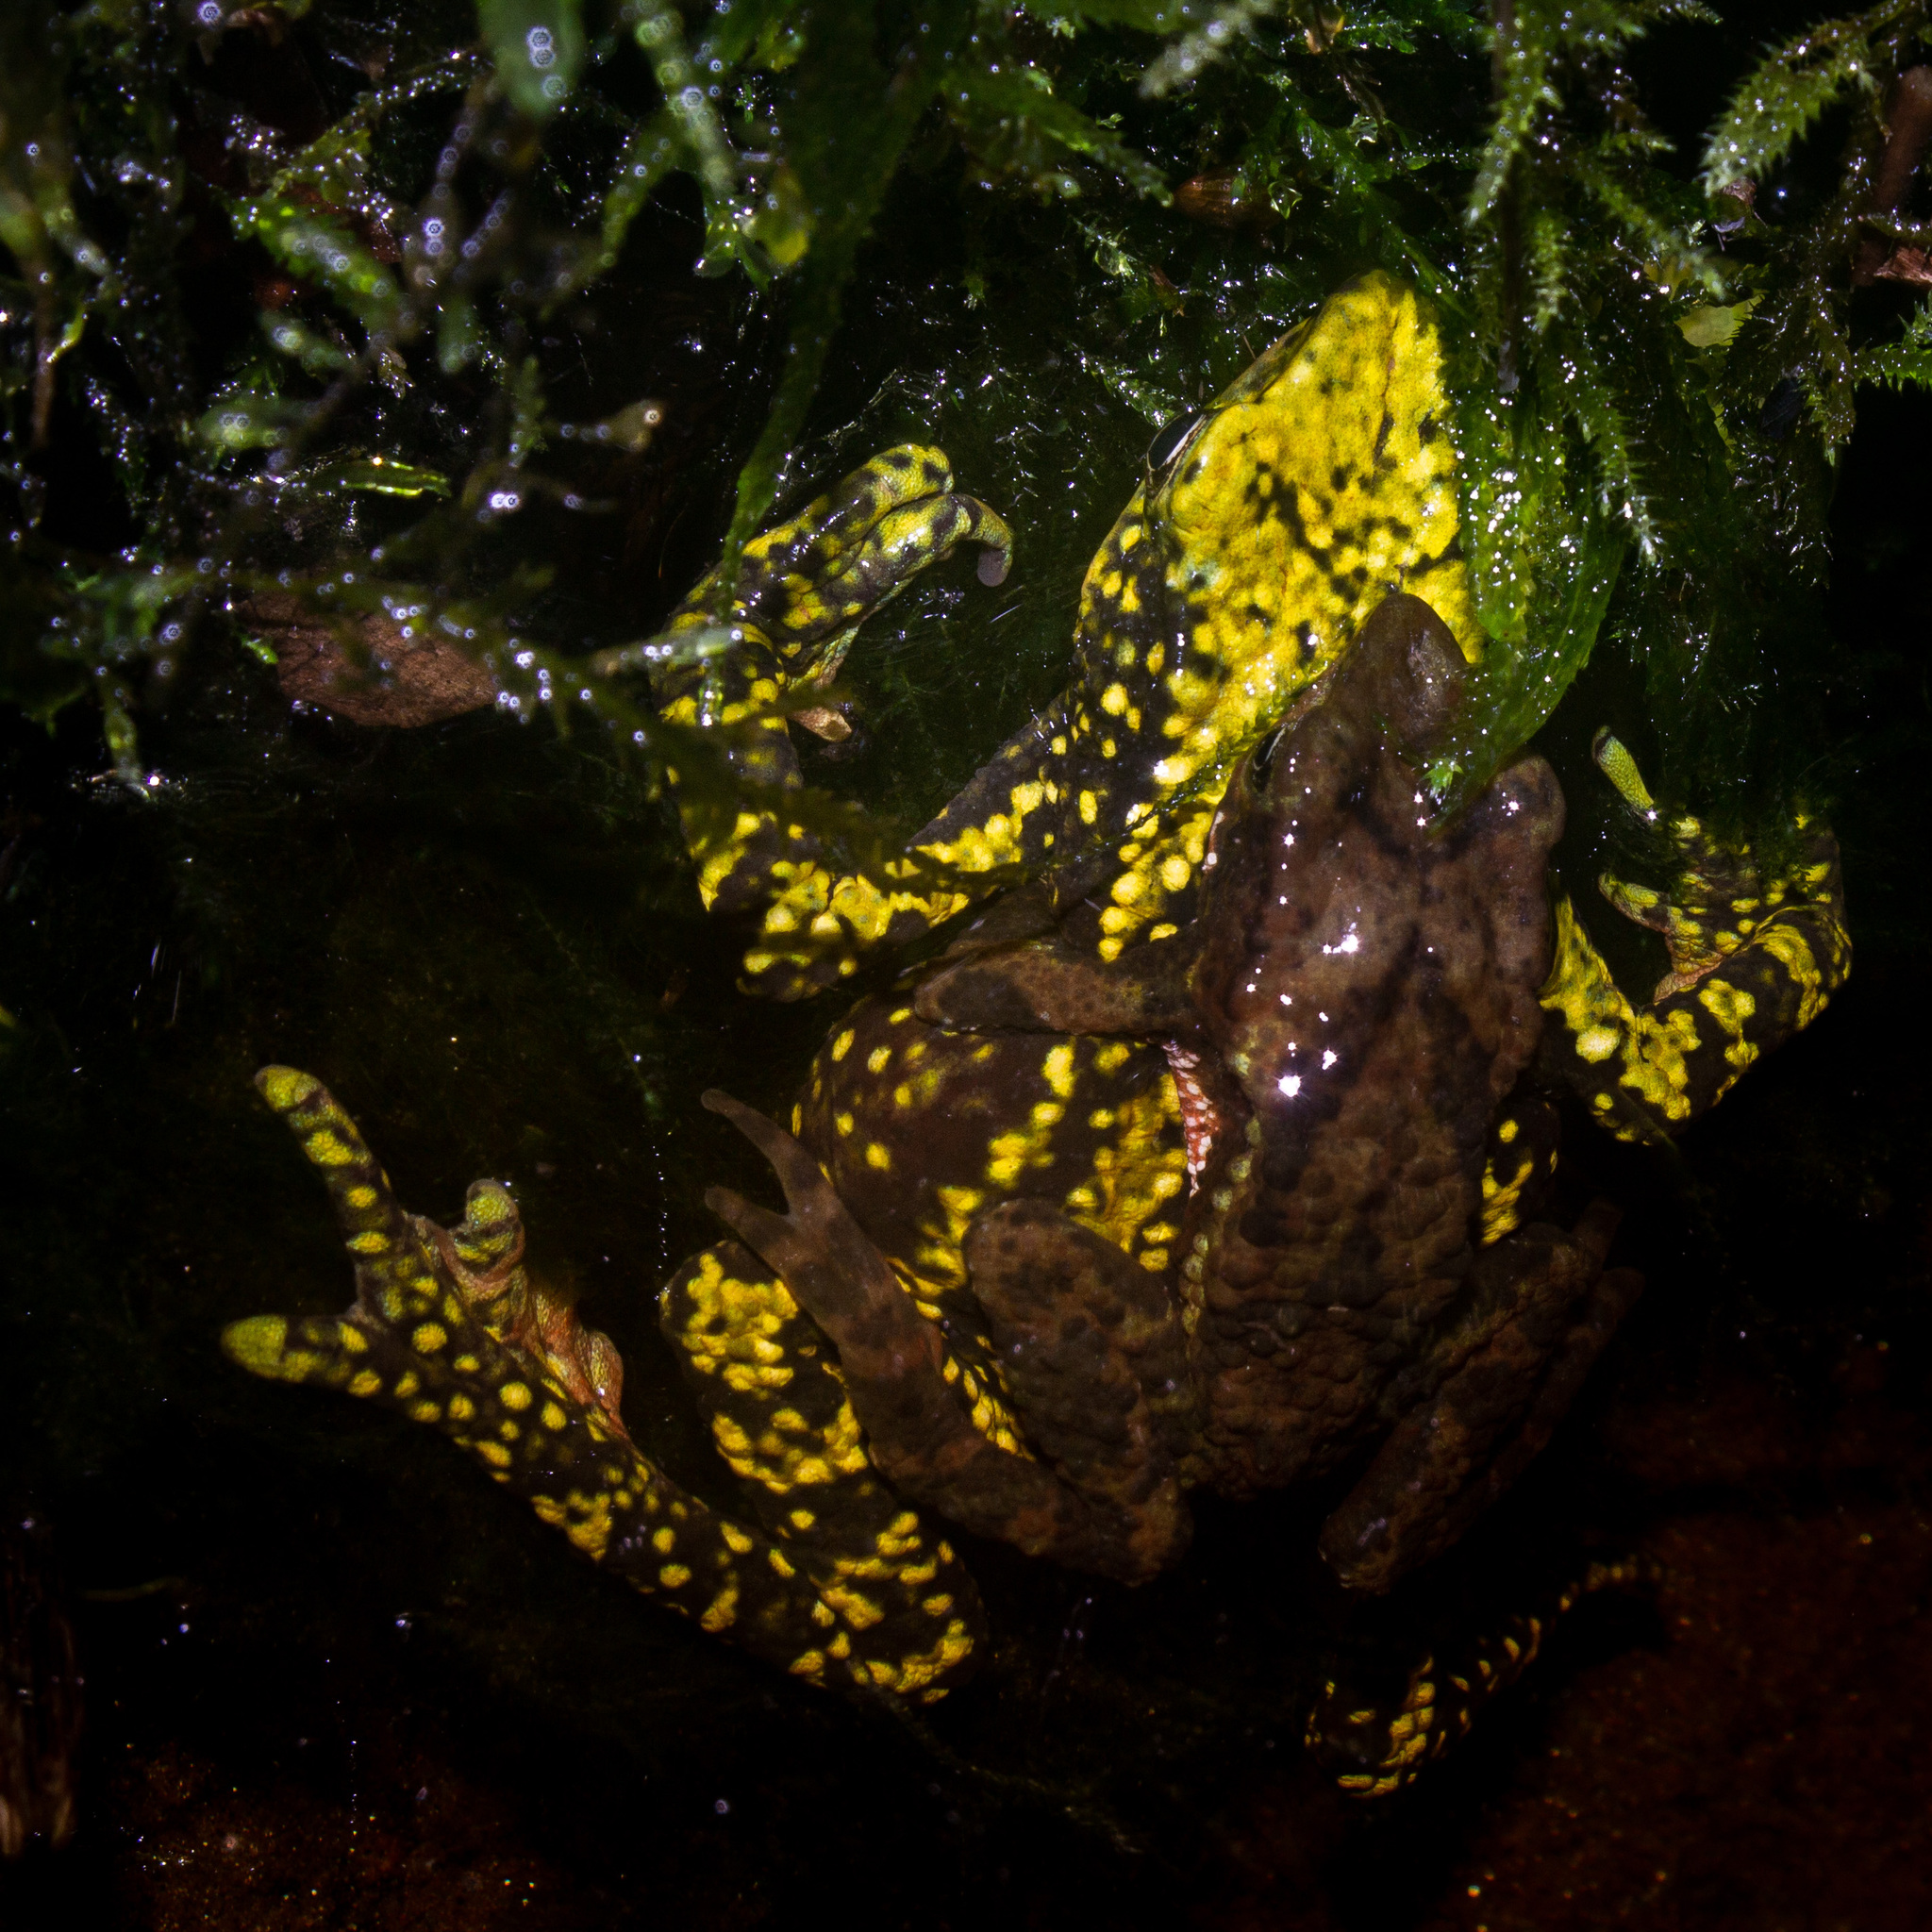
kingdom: Animalia
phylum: Chordata
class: Amphibia
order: Anura
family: Bufonidae
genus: Atelopus
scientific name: Atelopus laetissimus
